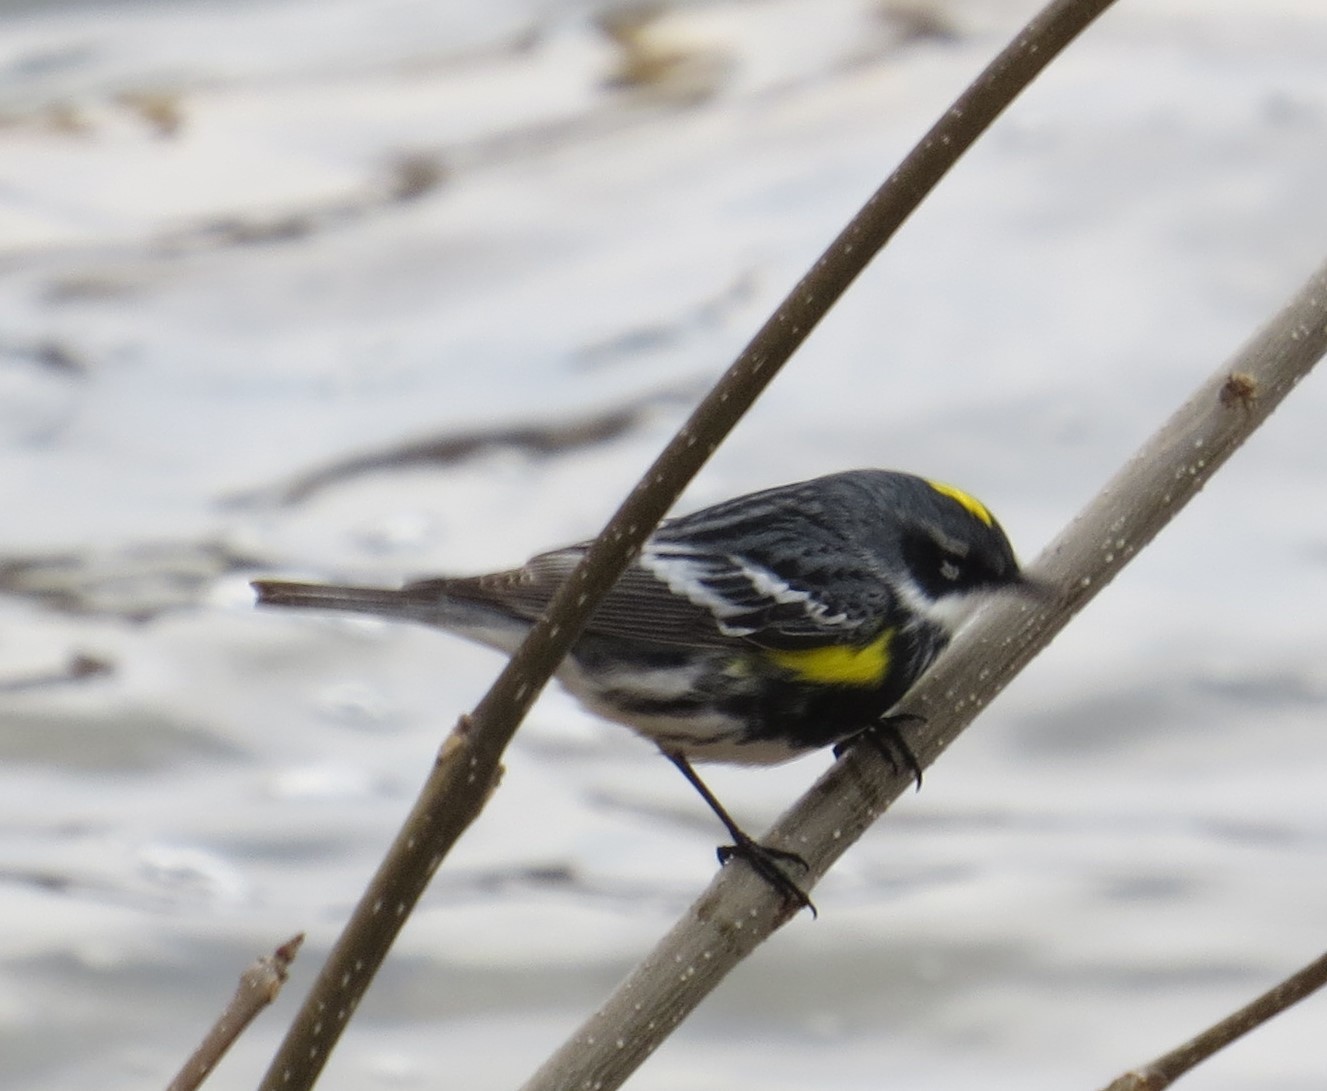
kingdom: Animalia
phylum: Chordata
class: Aves
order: Passeriformes
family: Parulidae
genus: Setophaga
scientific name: Setophaga coronata
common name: Myrtle warbler
